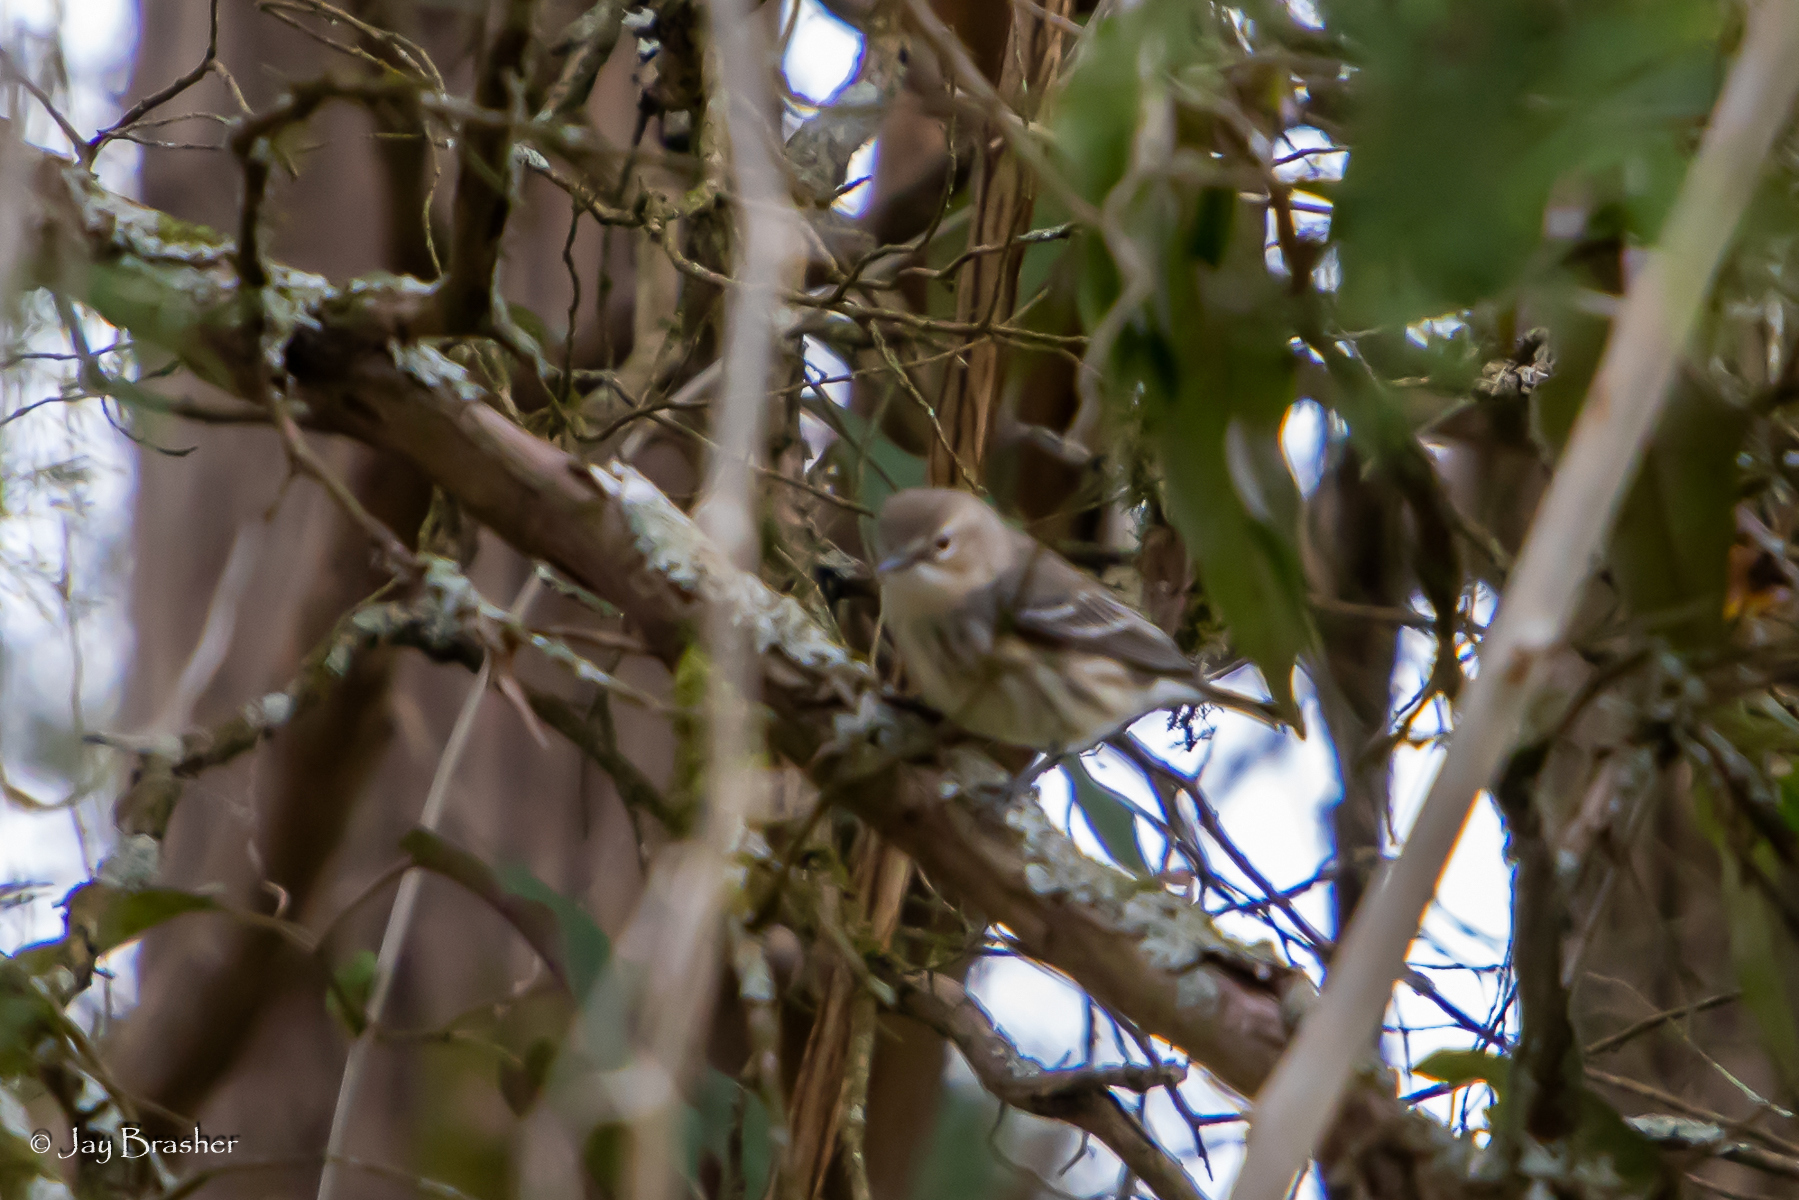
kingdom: Animalia
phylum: Chordata
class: Aves
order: Passeriformes
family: Parulidae
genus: Setophaga
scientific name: Setophaga coronata
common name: Myrtle warbler
